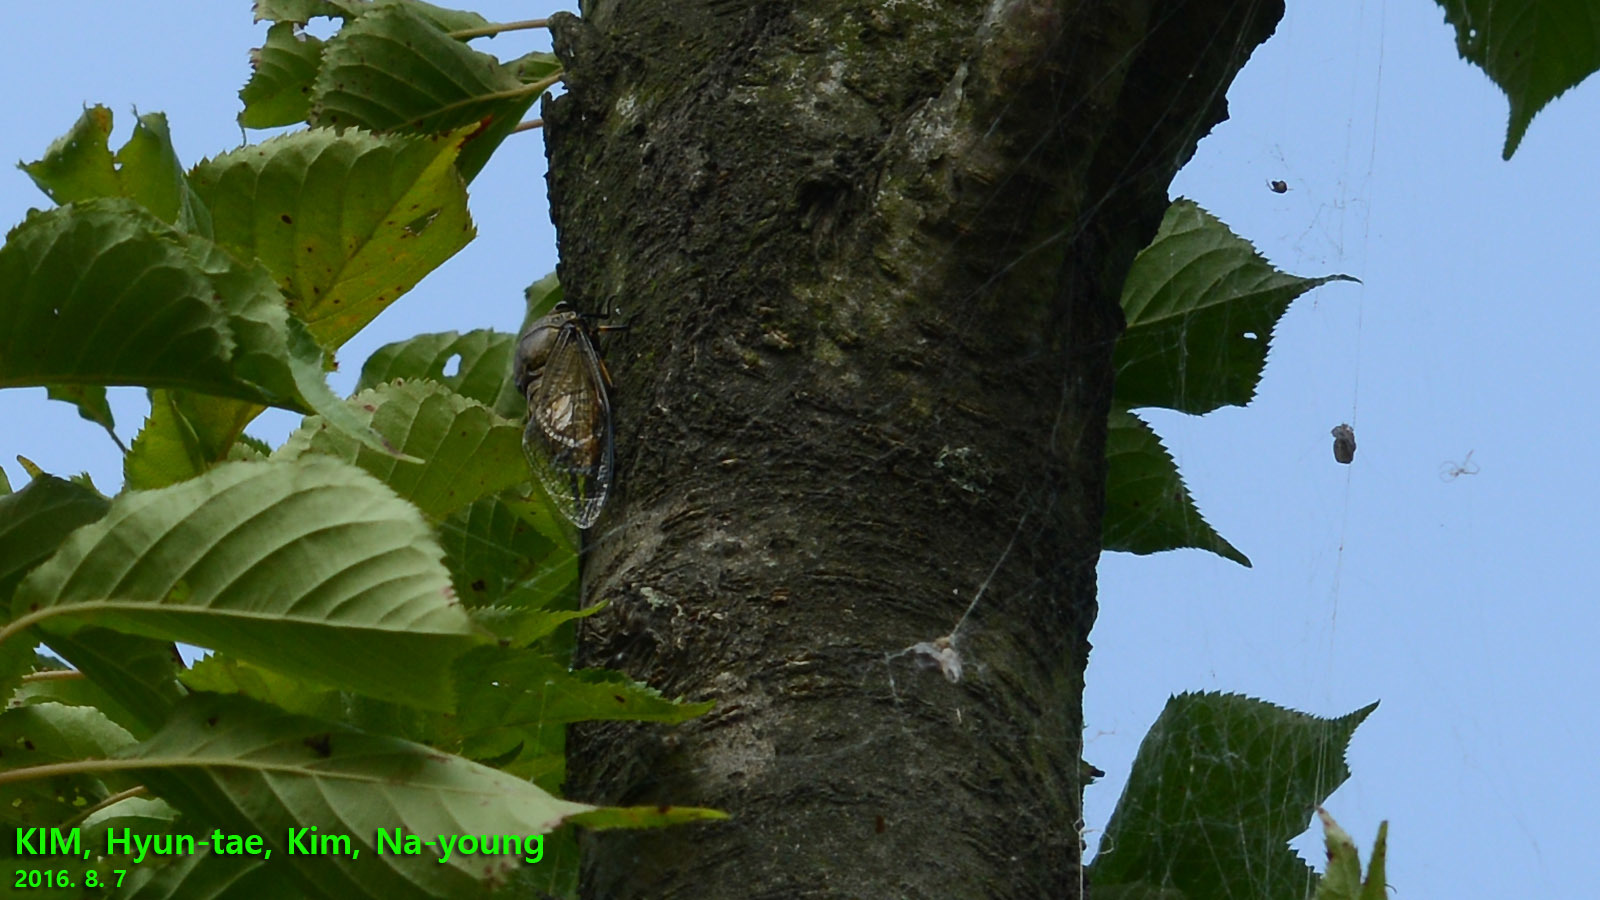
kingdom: Animalia
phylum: Arthropoda
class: Insecta
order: Hemiptera
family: Cicadidae
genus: Cryptotympana
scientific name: Cryptotympana atrata
